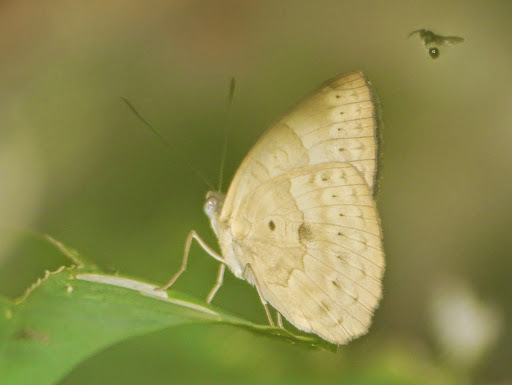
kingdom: Animalia
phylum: Arthropoda
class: Insecta
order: Lepidoptera
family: Nymphalidae
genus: Euriphene
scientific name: Euriphene tadema
